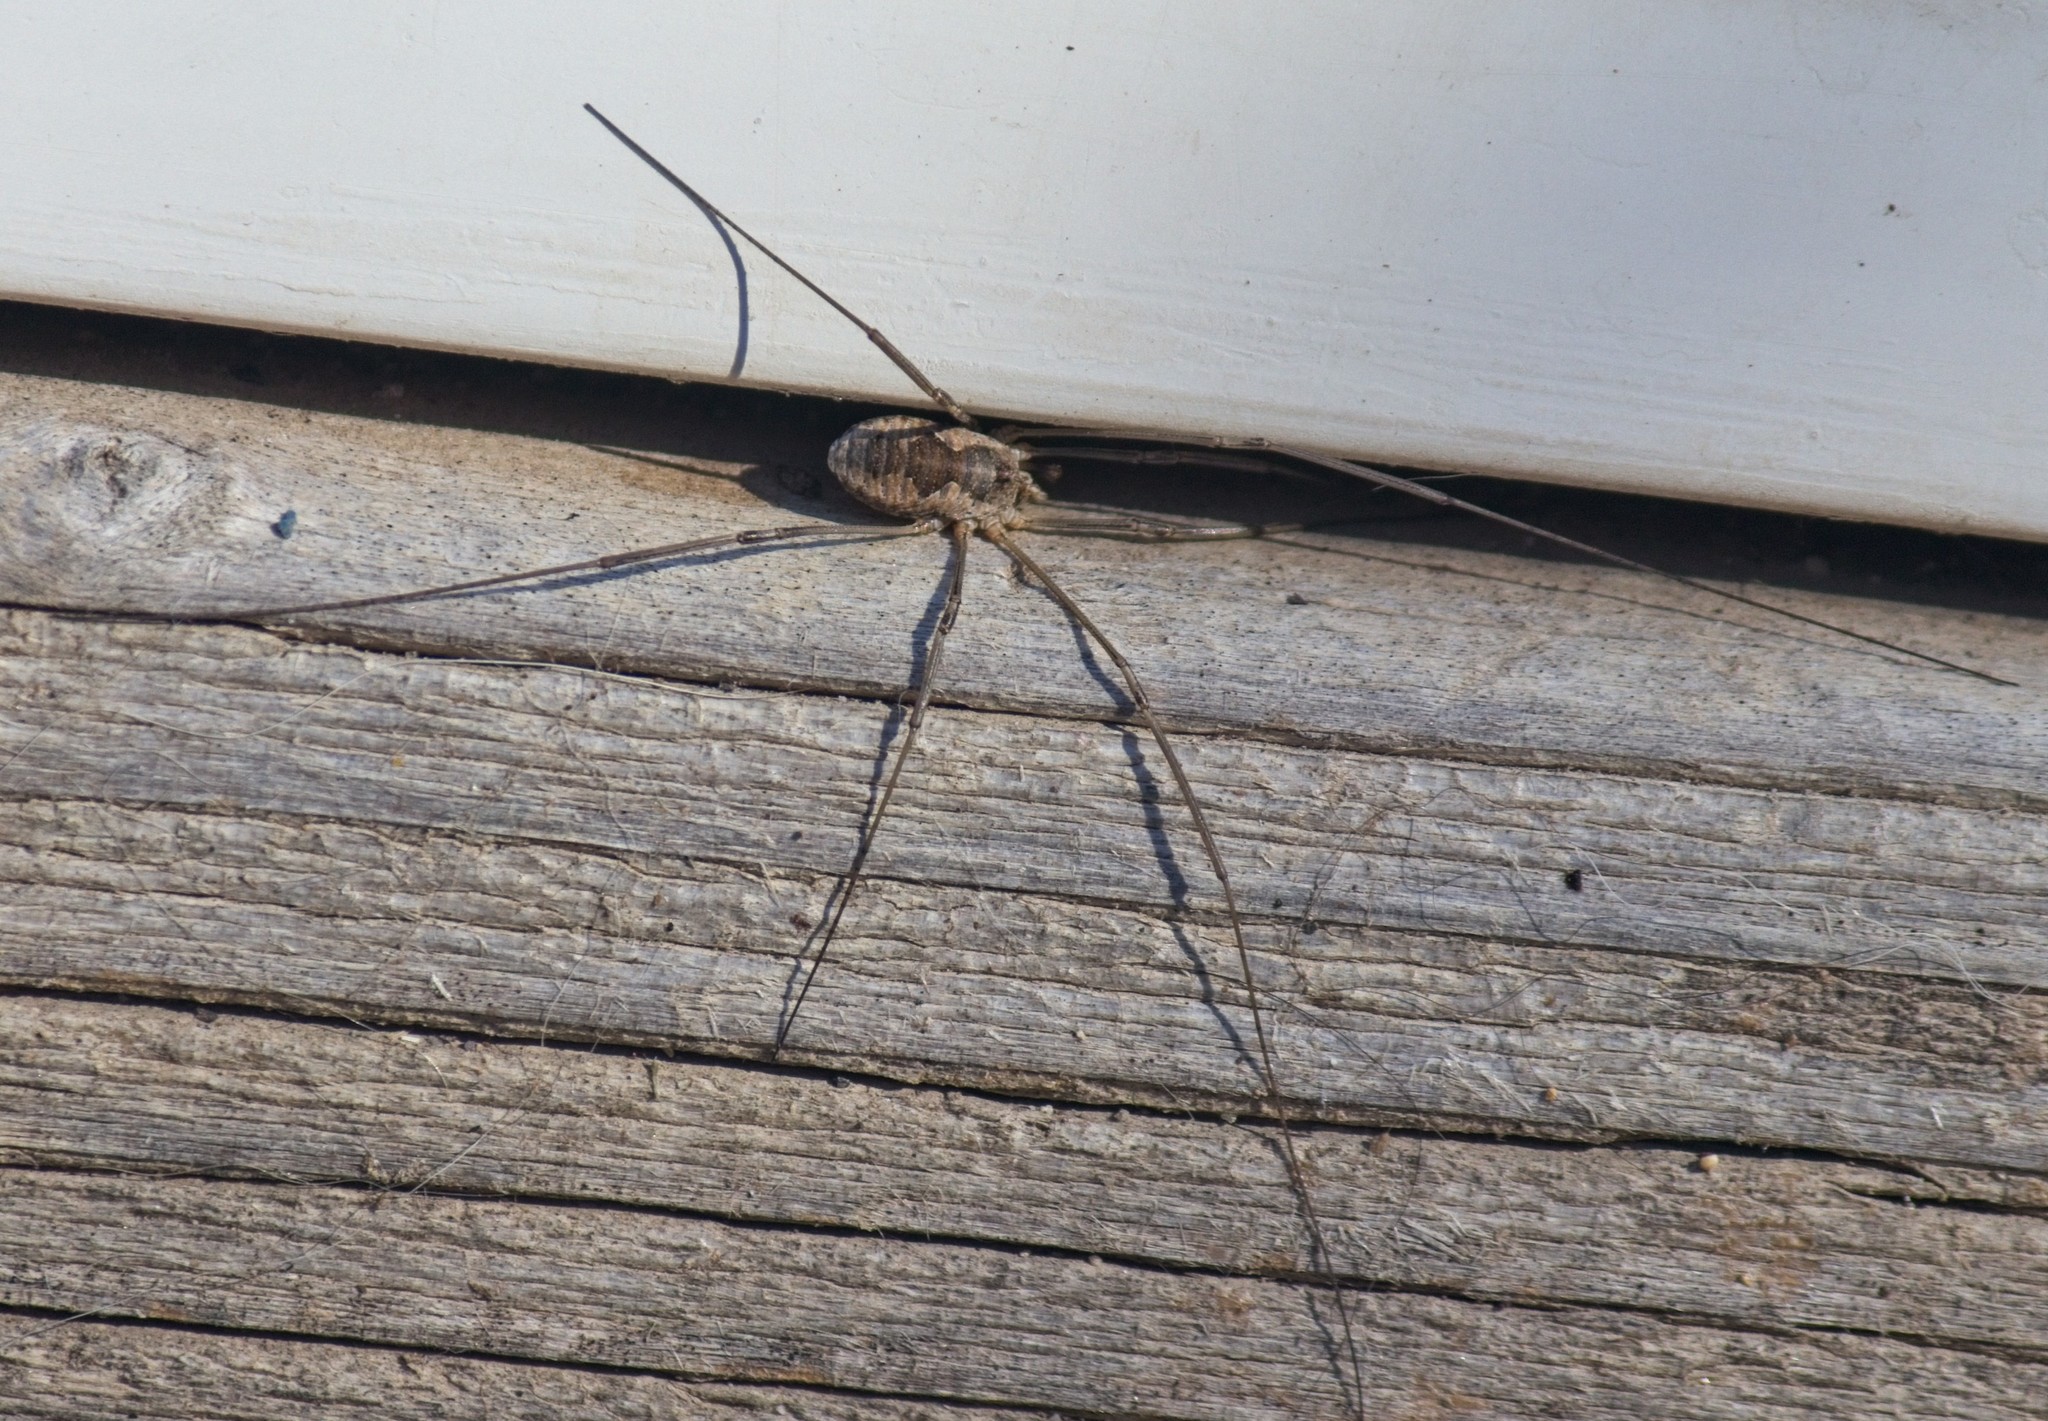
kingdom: Animalia
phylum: Arthropoda
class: Arachnida
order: Opiliones
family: Phalangiidae
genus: Phalangium
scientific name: Phalangium opilio
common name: Daddy longleg
